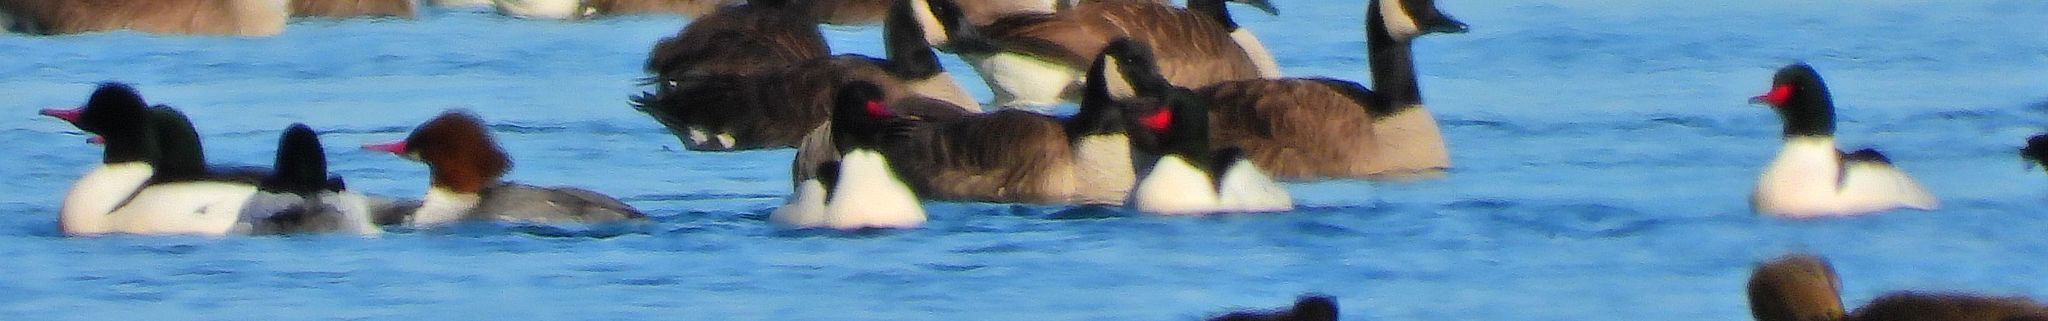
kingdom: Animalia
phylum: Chordata
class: Aves
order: Anseriformes
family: Anatidae
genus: Mergus
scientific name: Mergus merganser
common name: Common merganser
